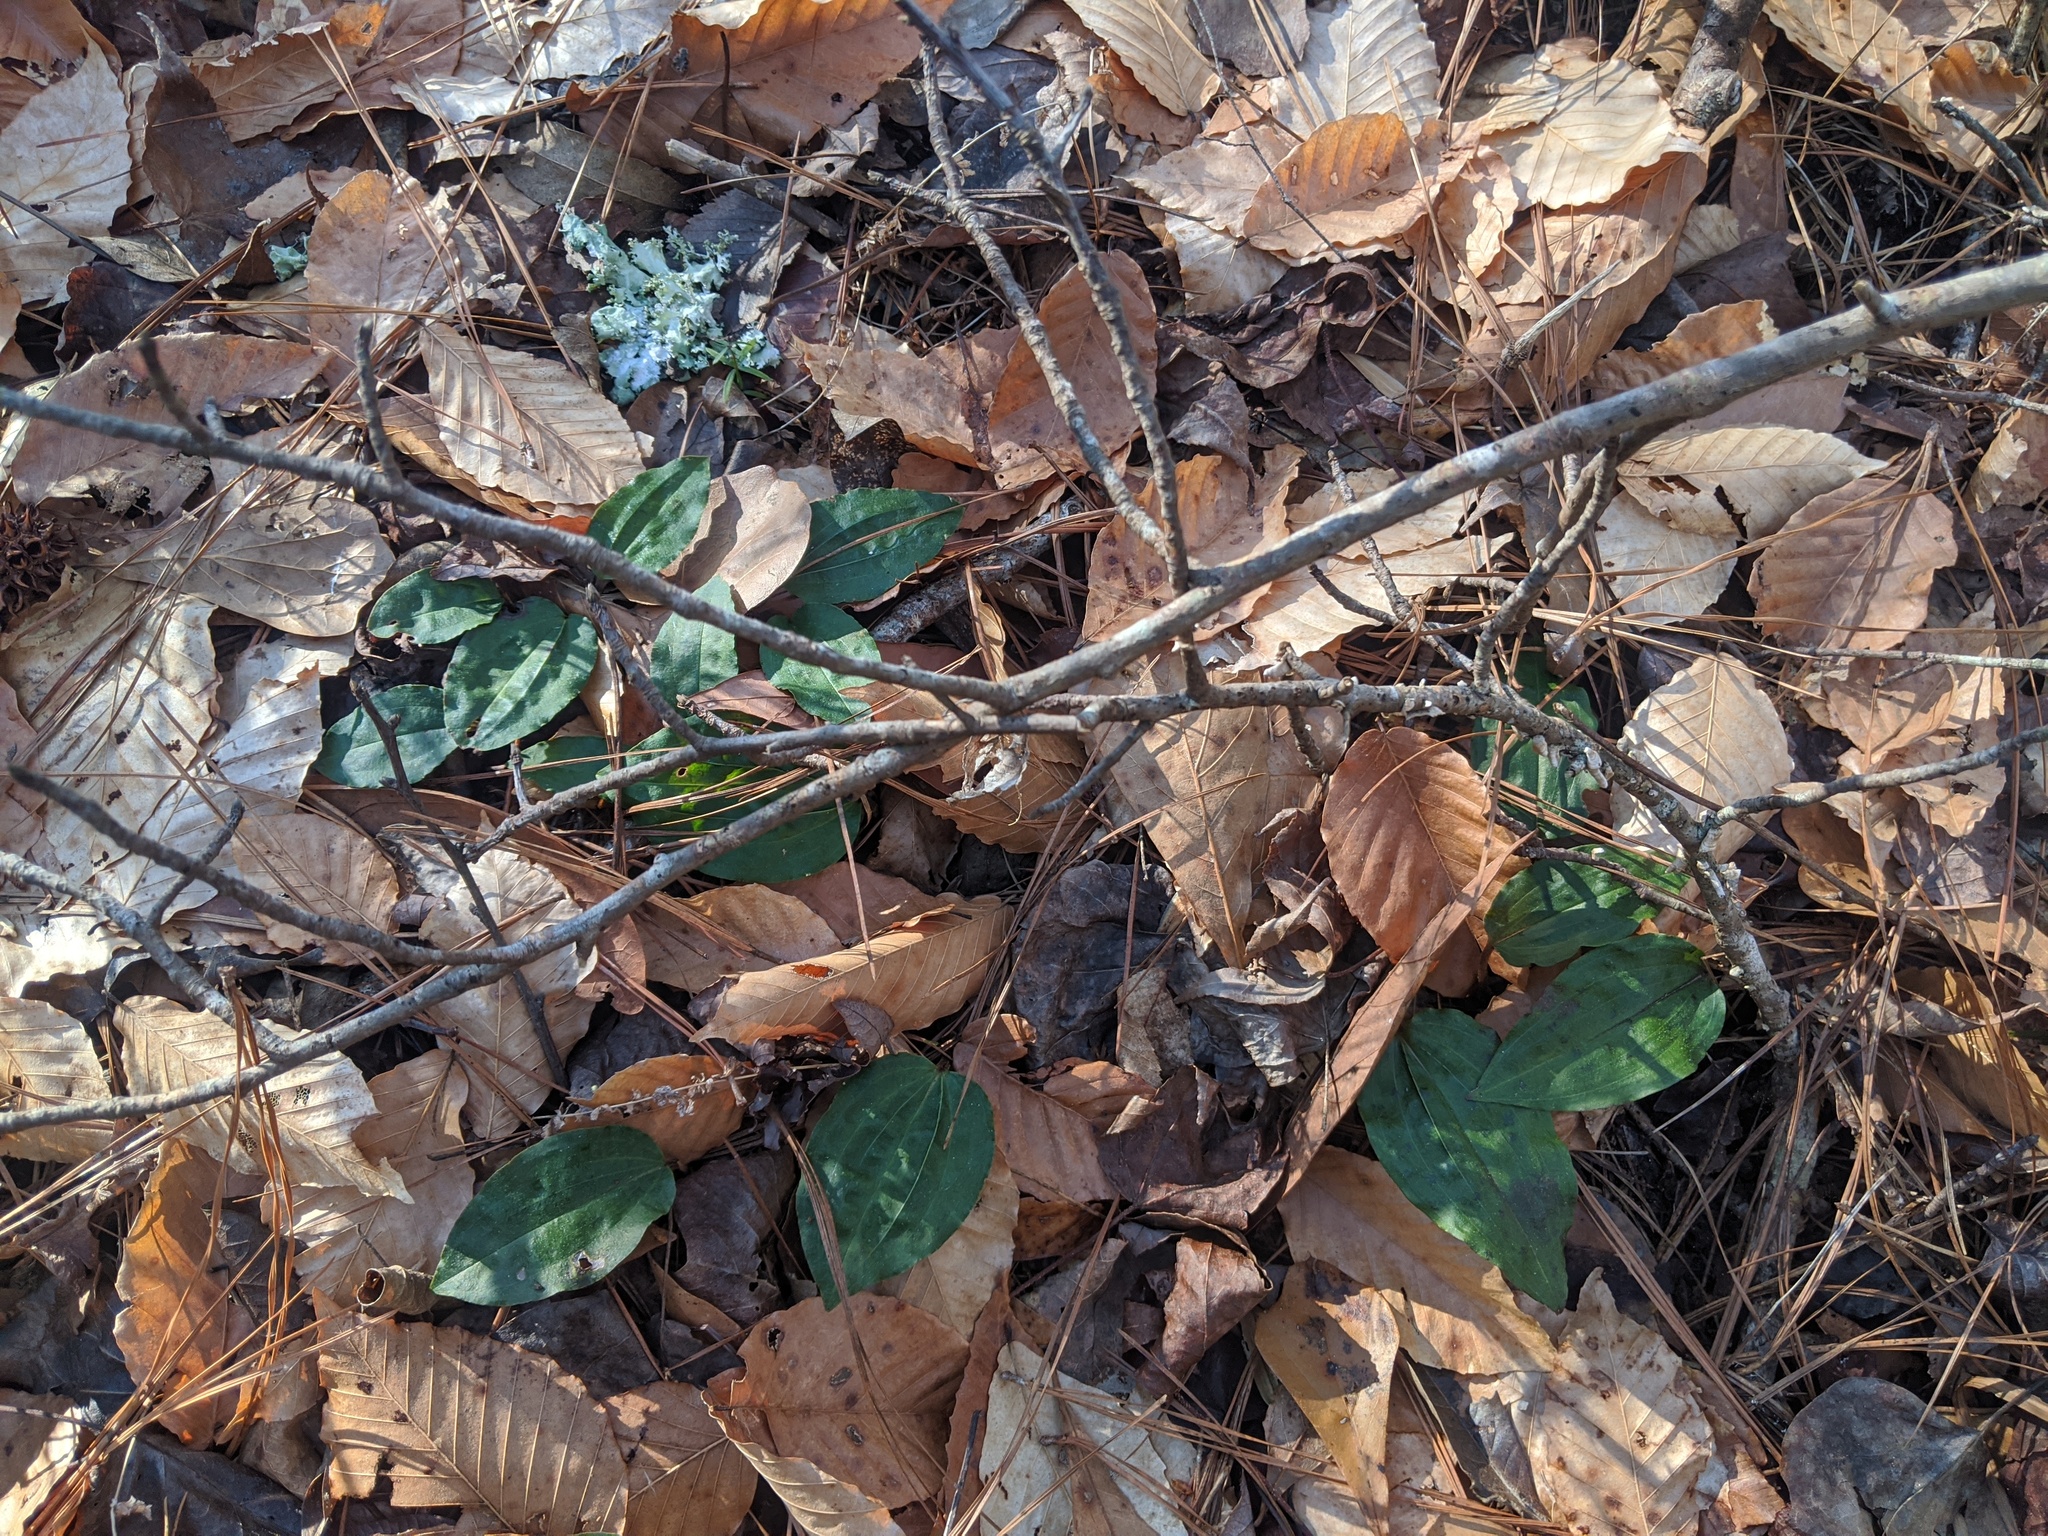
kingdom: Plantae
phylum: Tracheophyta
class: Liliopsida
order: Asparagales
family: Orchidaceae
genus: Tipularia
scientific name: Tipularia discolor
